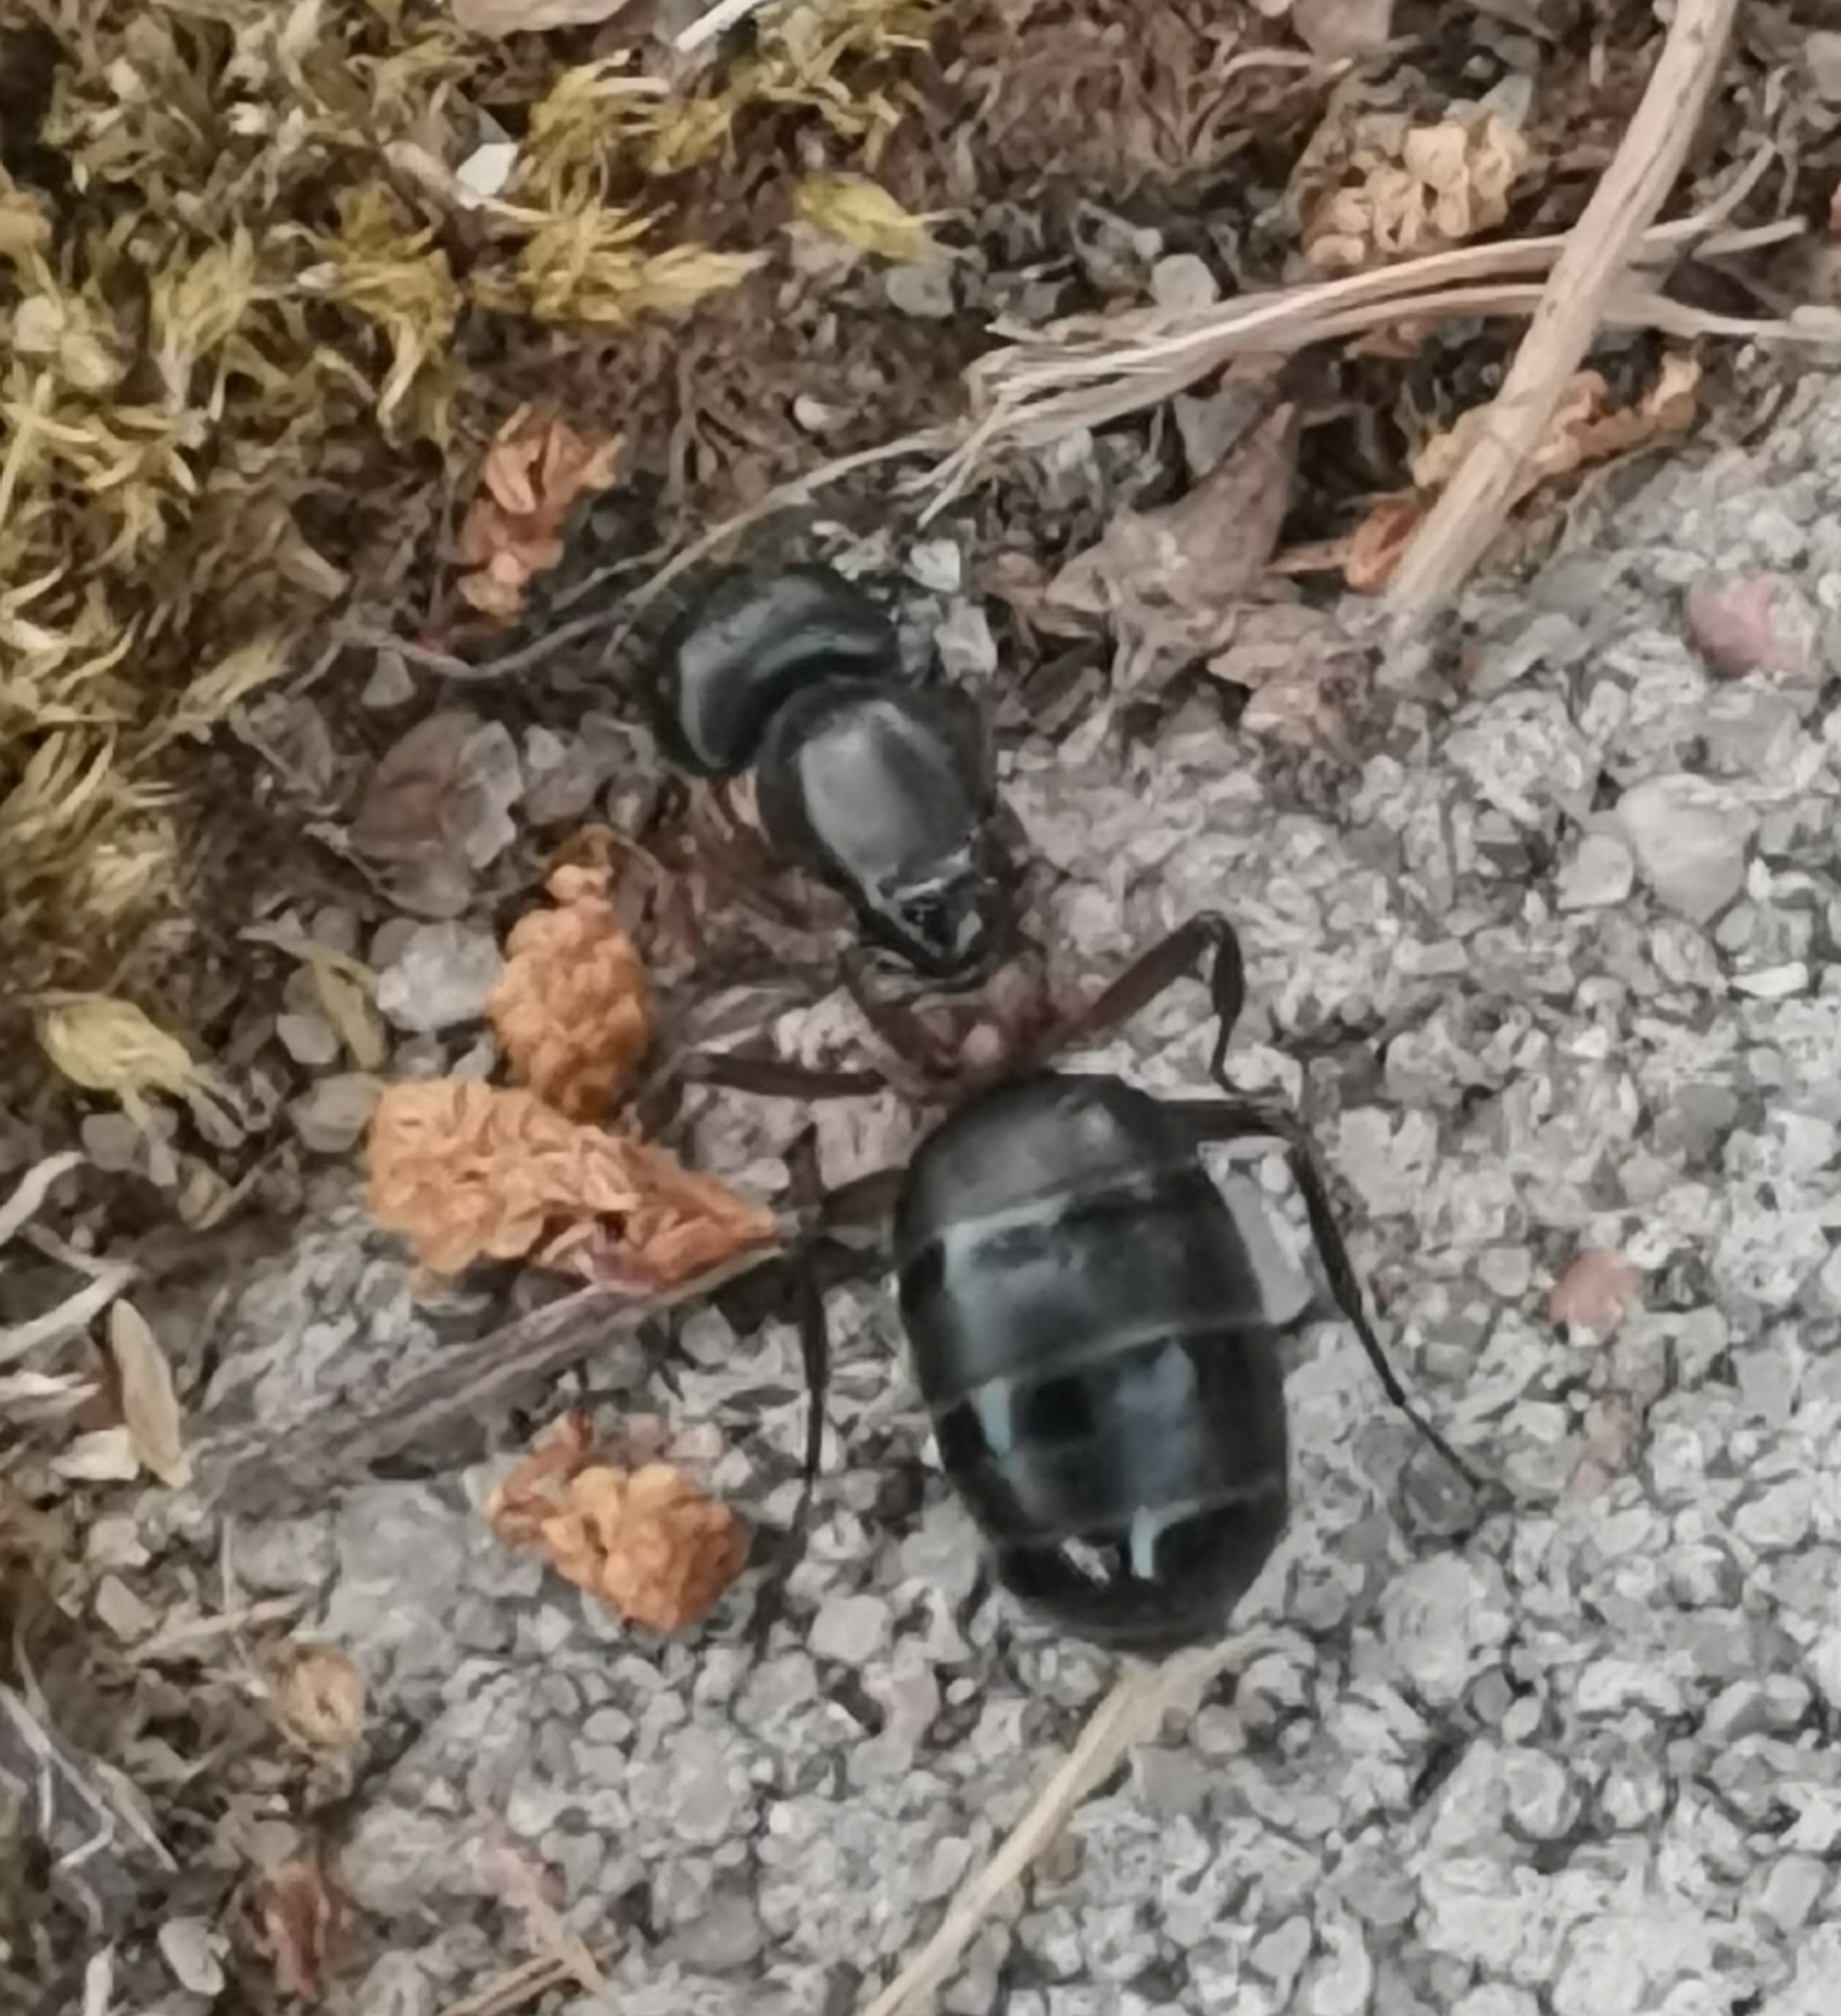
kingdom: Animalia
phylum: Arthropoda
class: Insecta
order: Hymenoptera
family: Formicidae
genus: Camponotus
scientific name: Camponotus herculeanus
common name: Hercules ant
